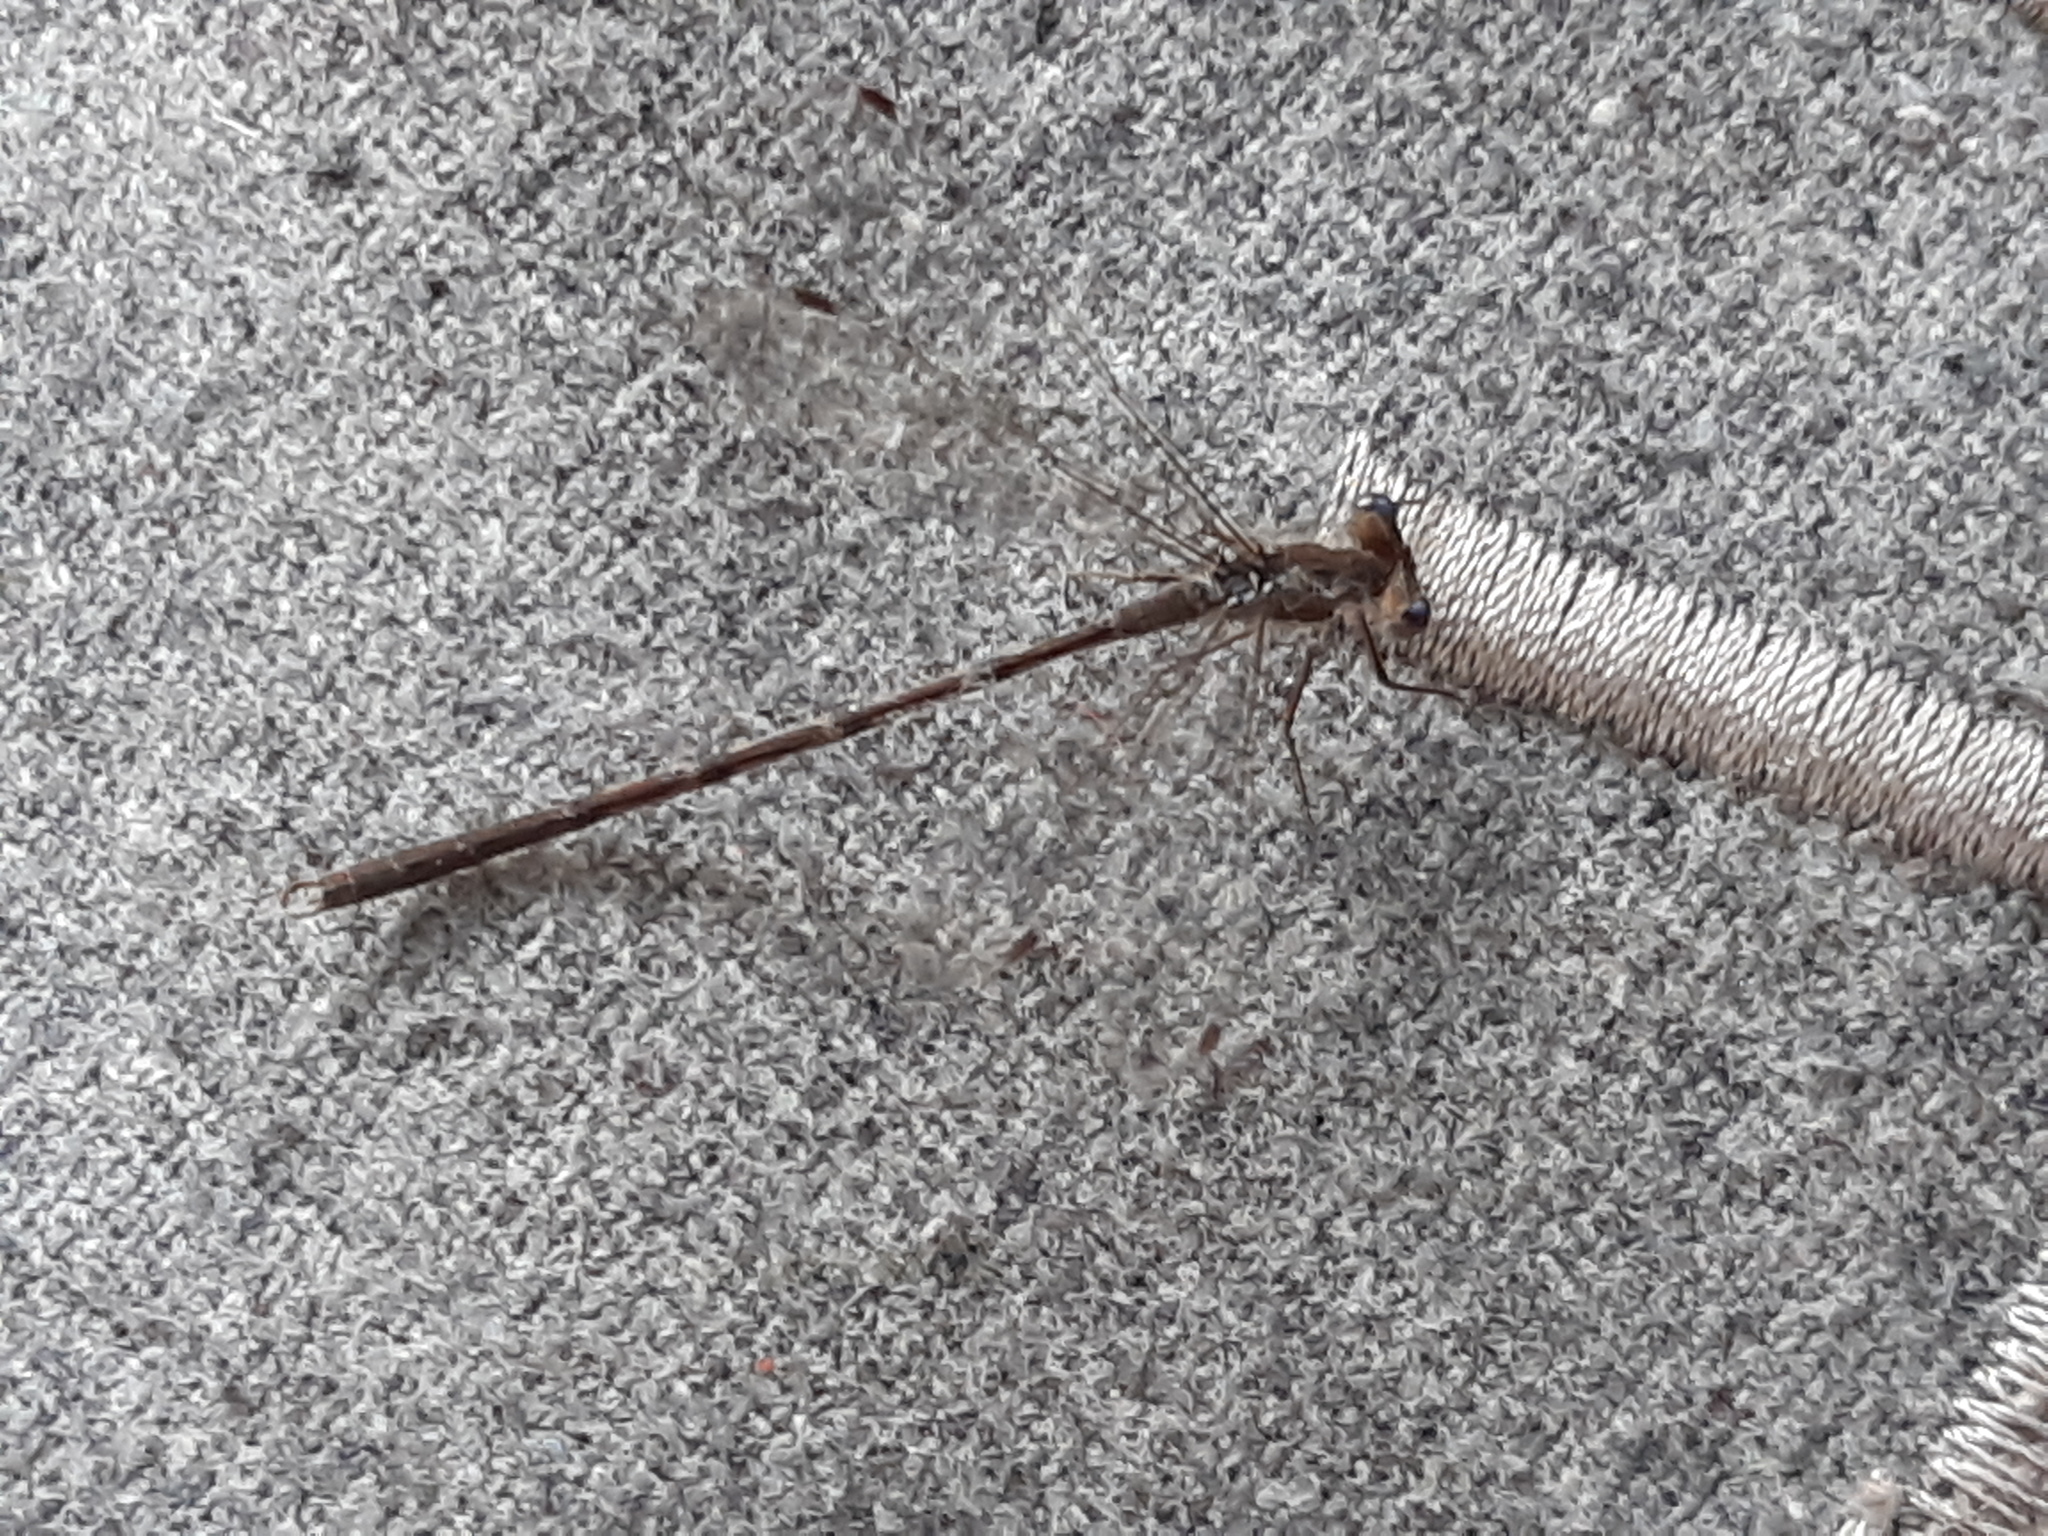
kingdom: Animalia
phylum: Arthropoda
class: Insecta
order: Odonata
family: Lestidae
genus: Sympecma
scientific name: Sympecma fusca
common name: Common winter damsel
